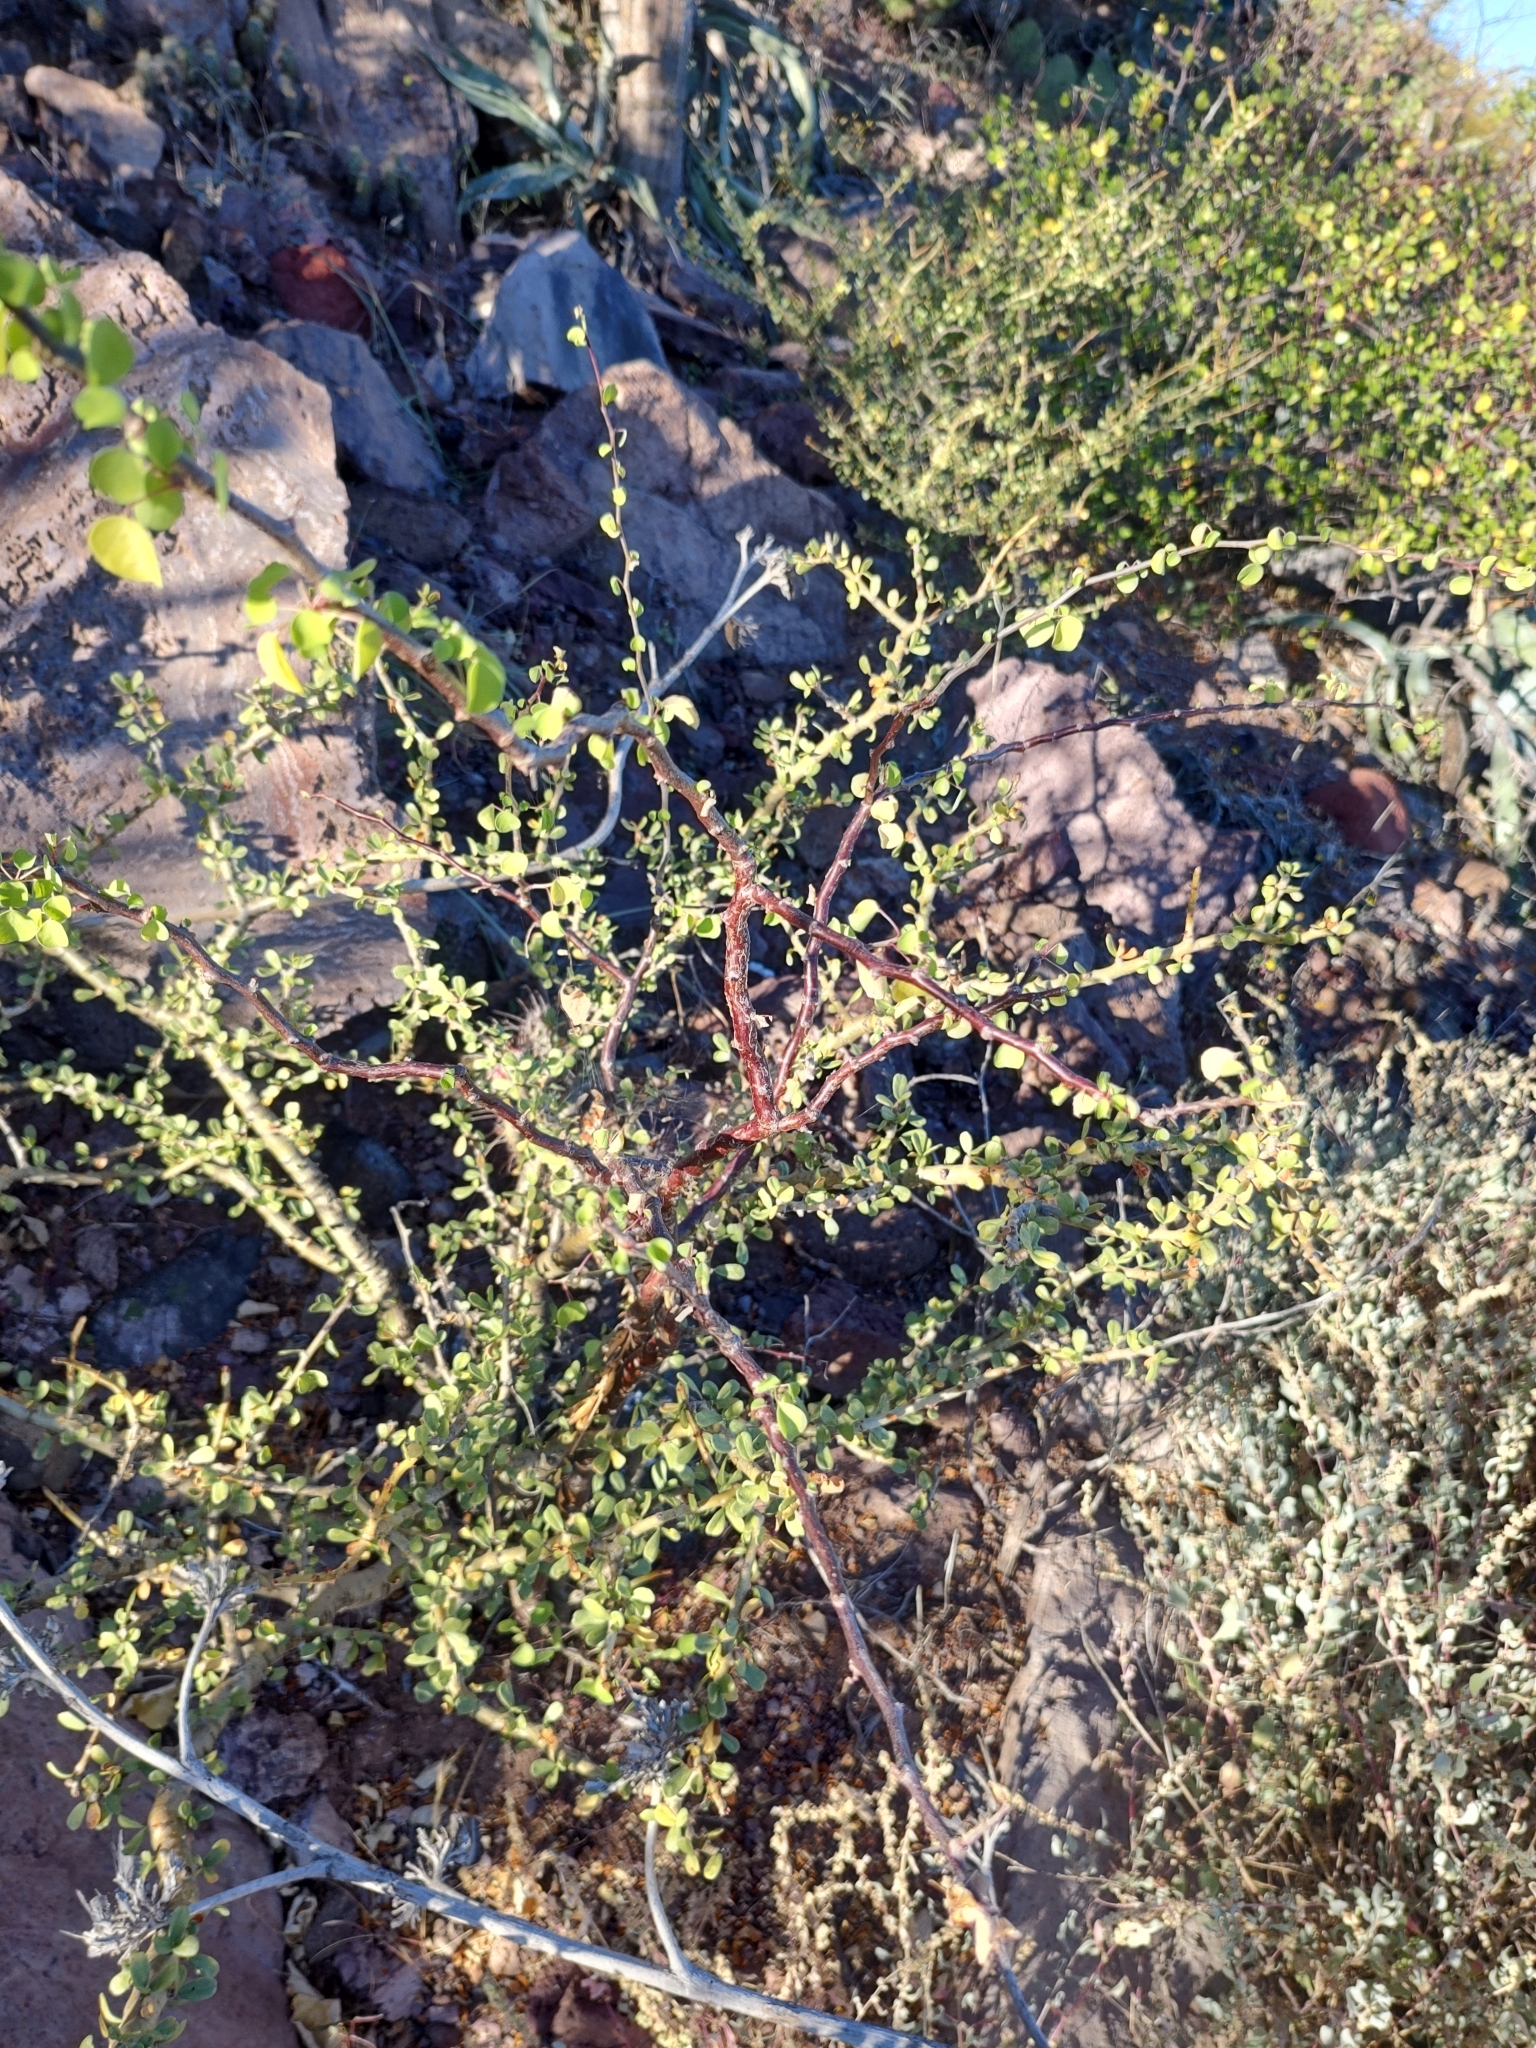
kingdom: Plantae
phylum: Tracheophyta
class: Magnoliopsida
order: Malpighiales
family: Euphorbiaceae
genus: Euphorbia
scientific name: Euphorbia californica
